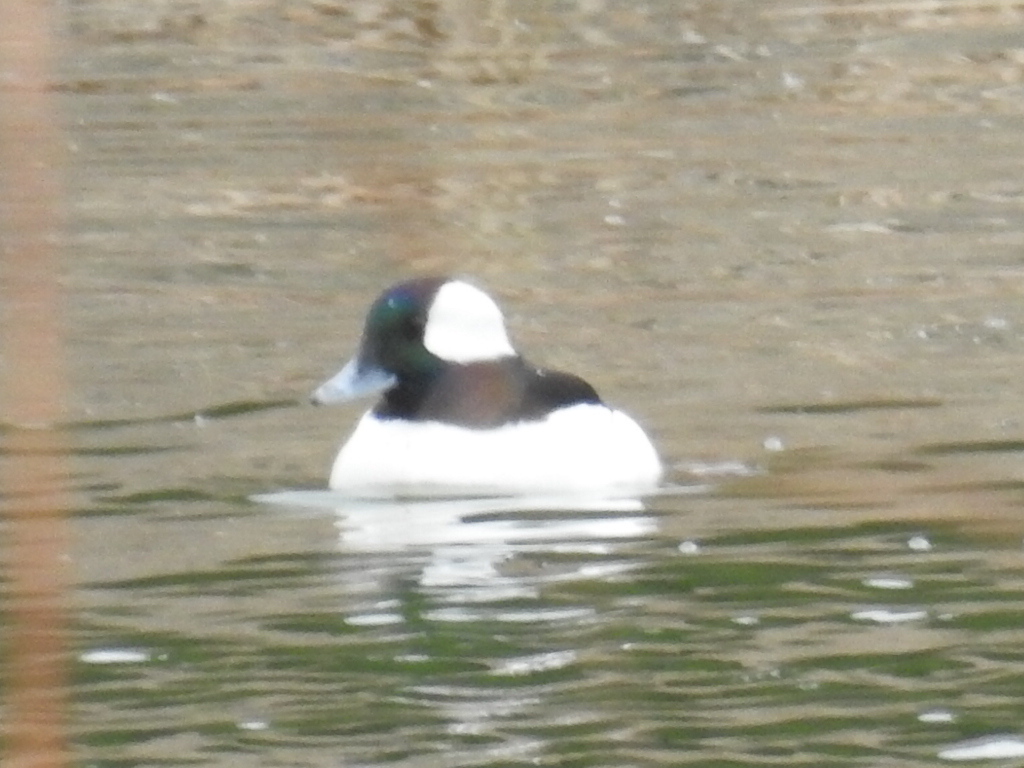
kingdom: Animalia
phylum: Chordata
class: Aves
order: Anseriformes
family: Anatidae
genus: Bucephala
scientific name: Bucephala albeola
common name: Bufflehead
